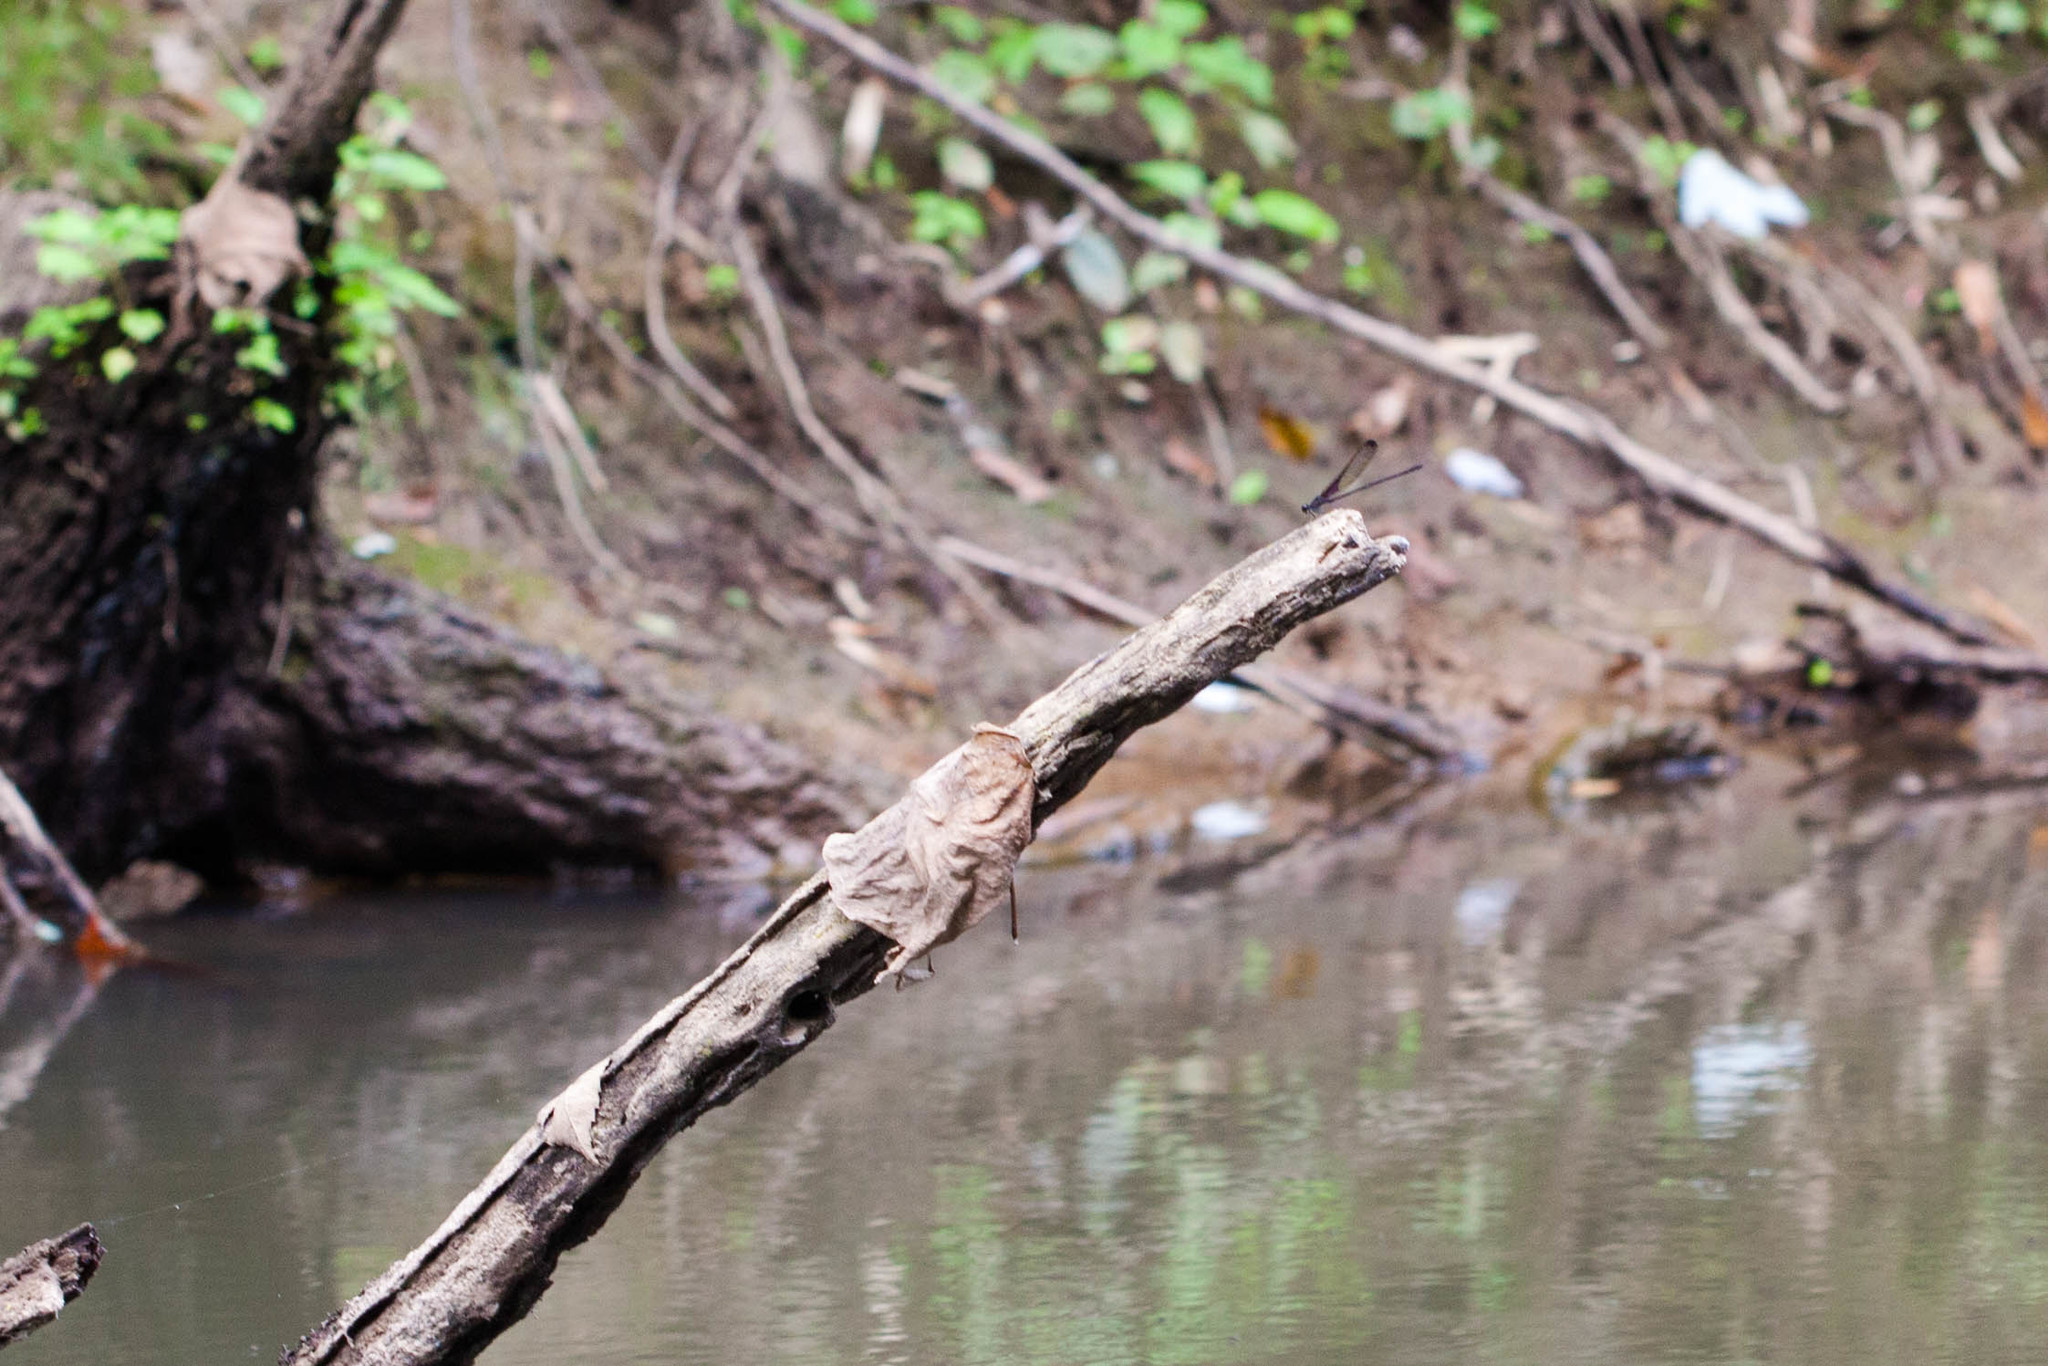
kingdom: Animalia
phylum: Arthropoda
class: Insecta
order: Odonata
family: Calopterygidae
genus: Hetaerina
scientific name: Hetaerina titia
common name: Smoky rubyspot
